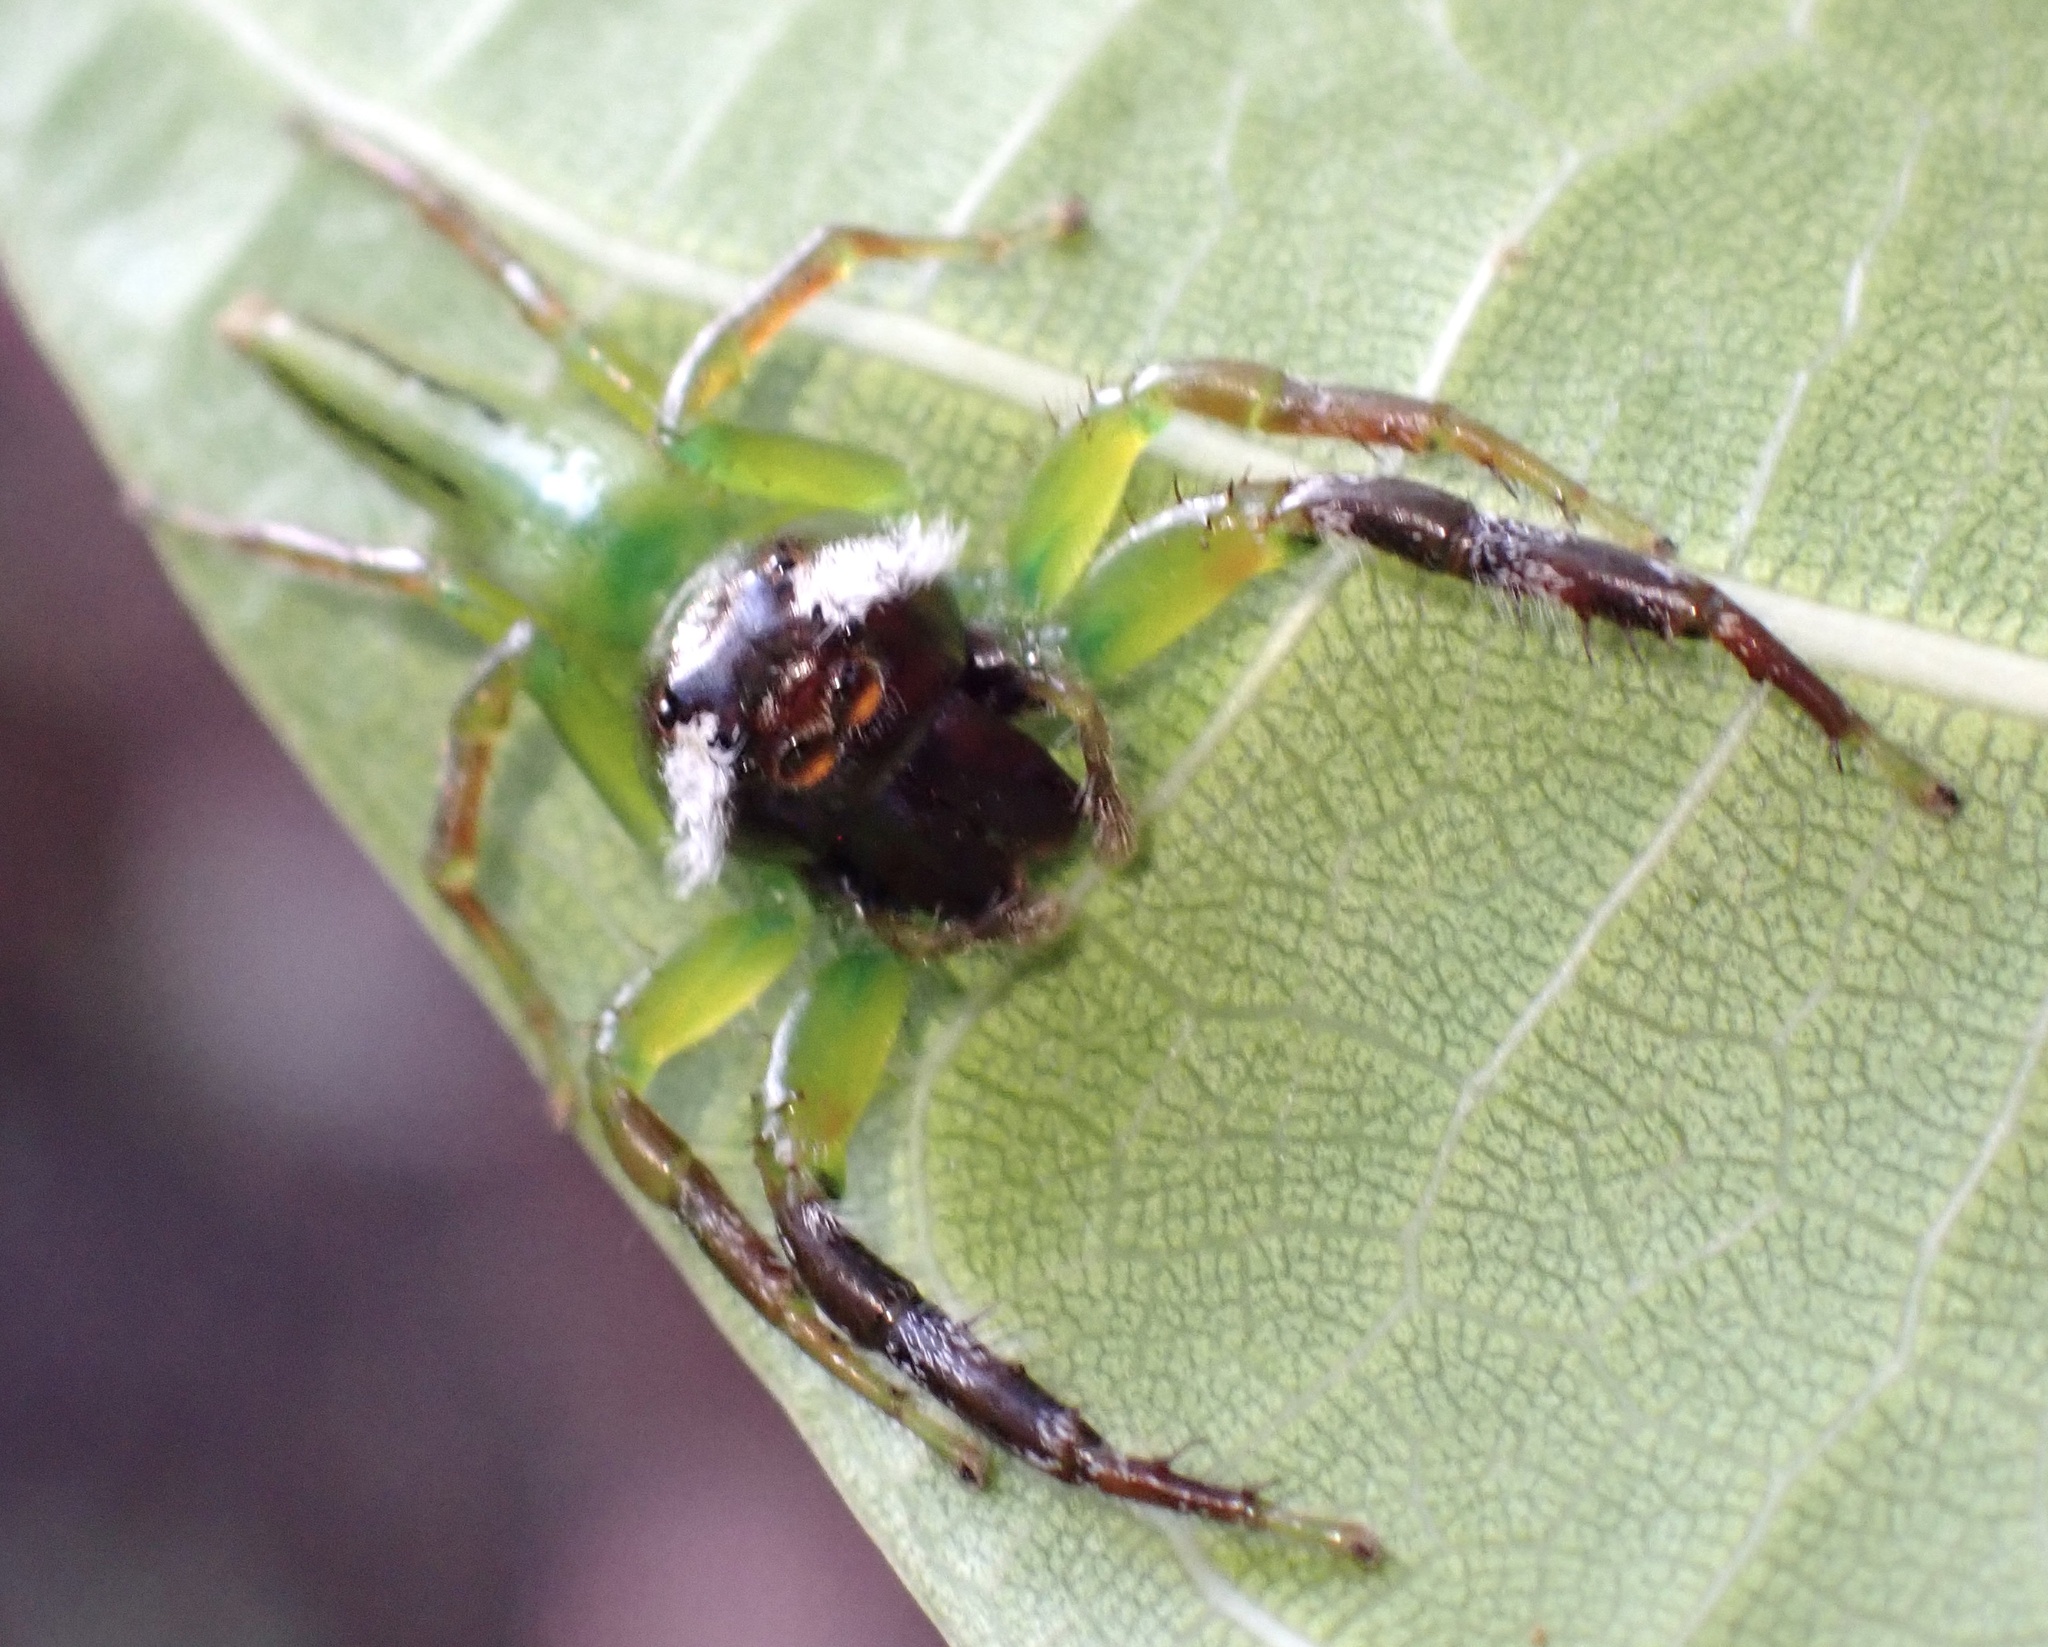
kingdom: Animalia
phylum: Arthropoda
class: Arachnida
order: Araneae
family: Salticidae
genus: Mopsus
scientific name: Mopsus mormon
